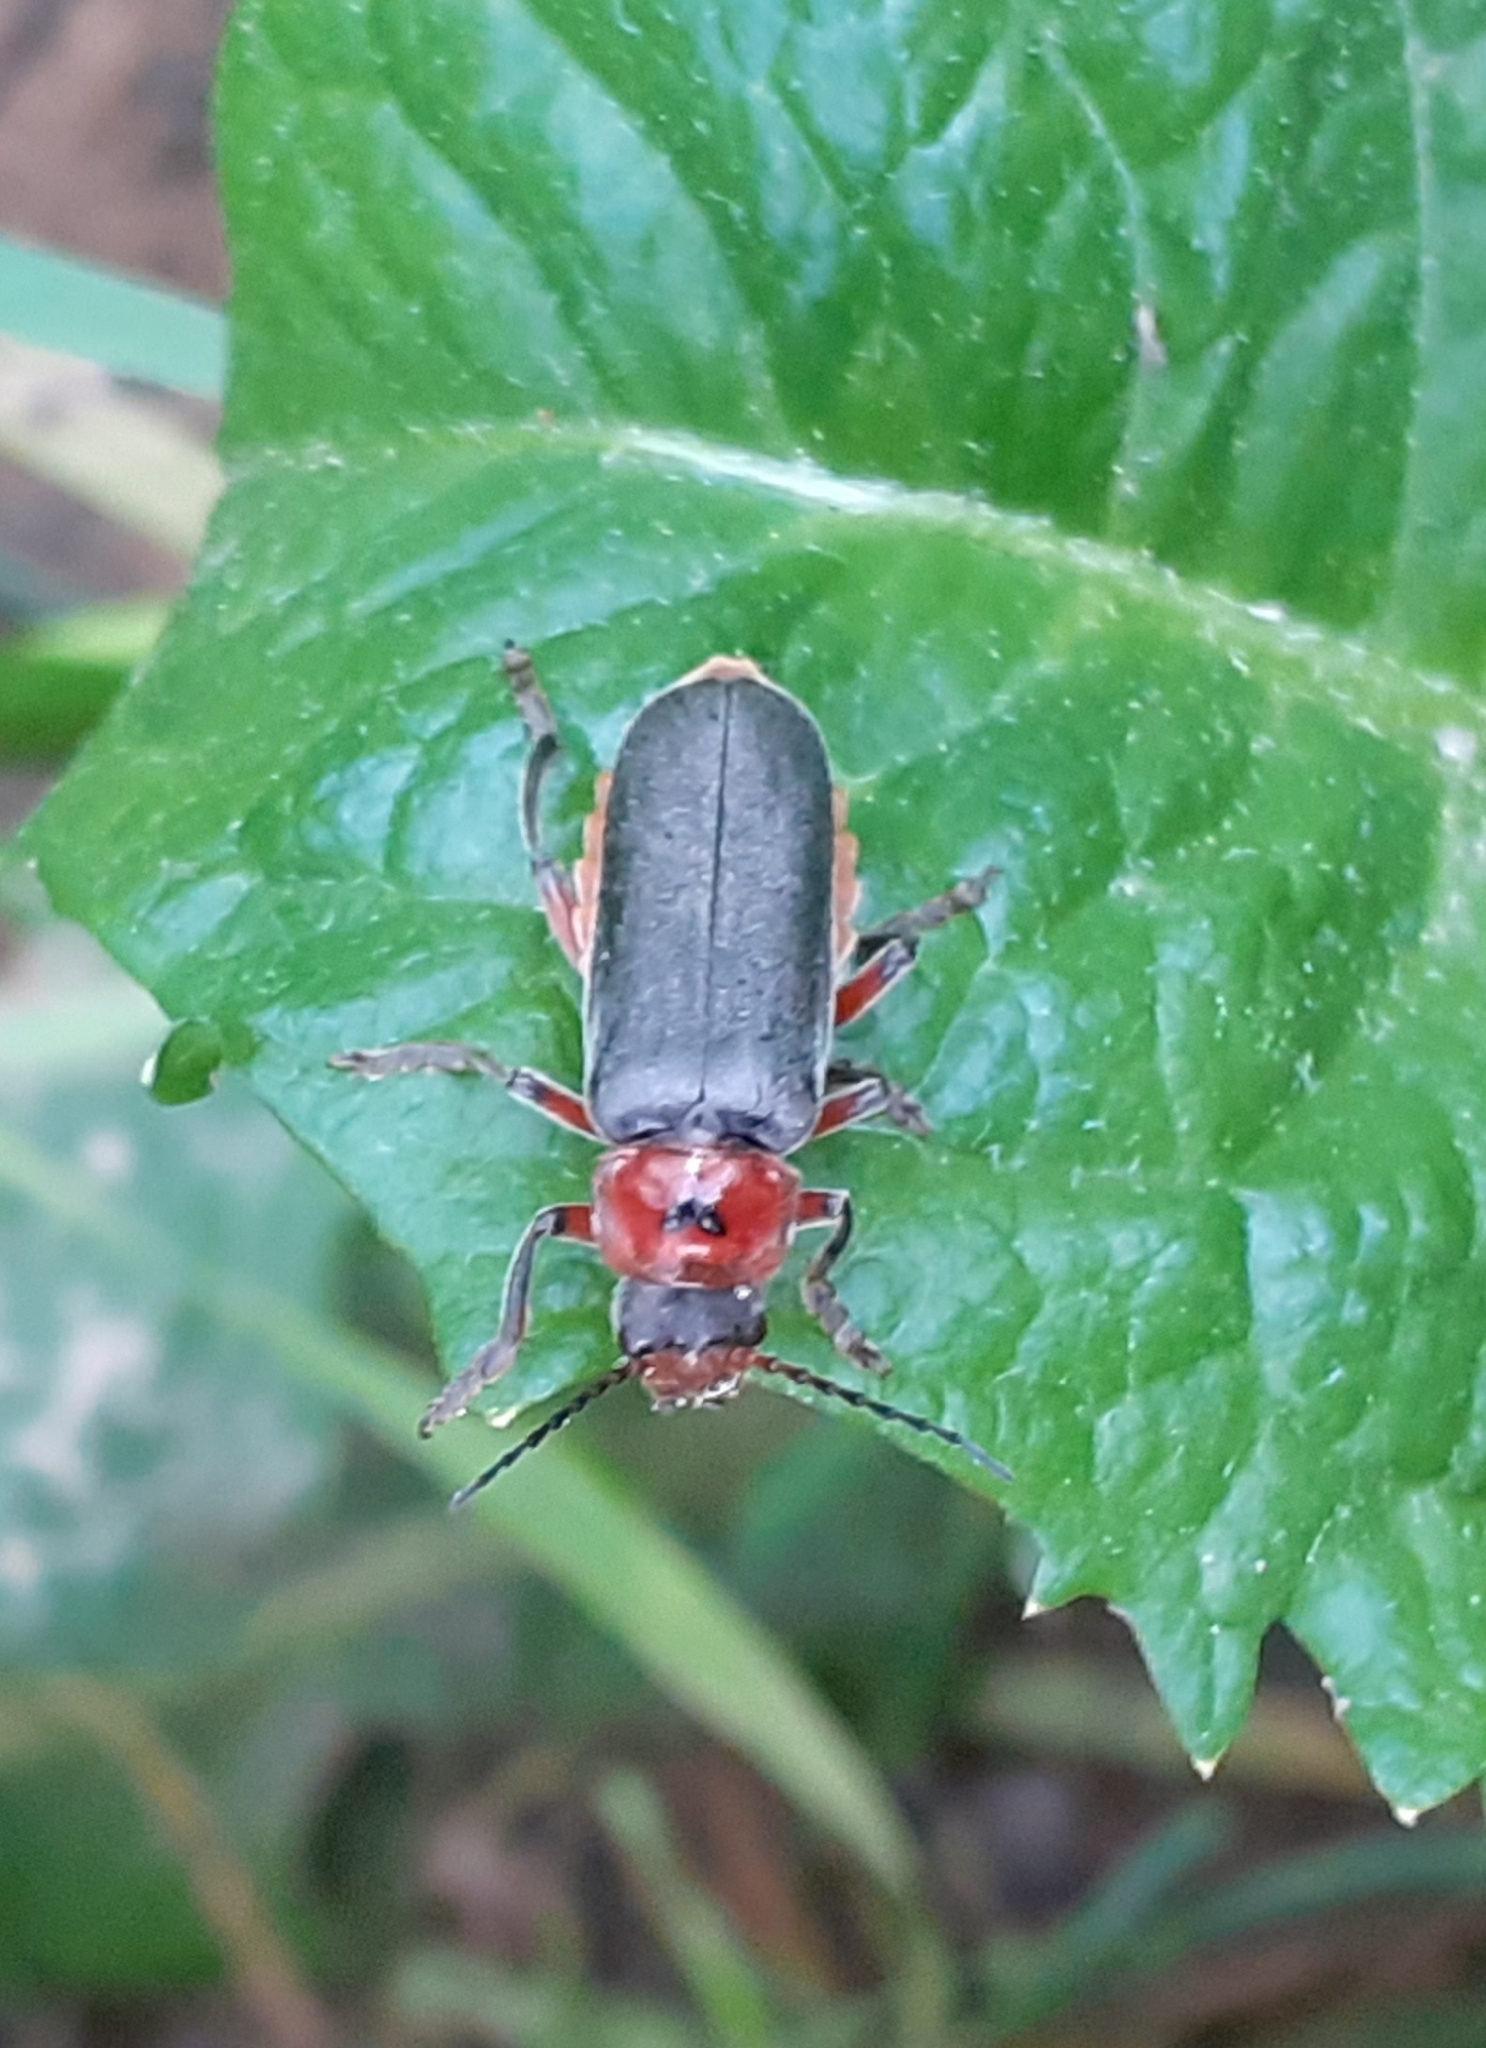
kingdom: Animalia
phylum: Arthropoda
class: Insecta
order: Coleoptera
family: Cantharidae
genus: Cantharis
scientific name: Cantharis rustica
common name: Soldier beetle
